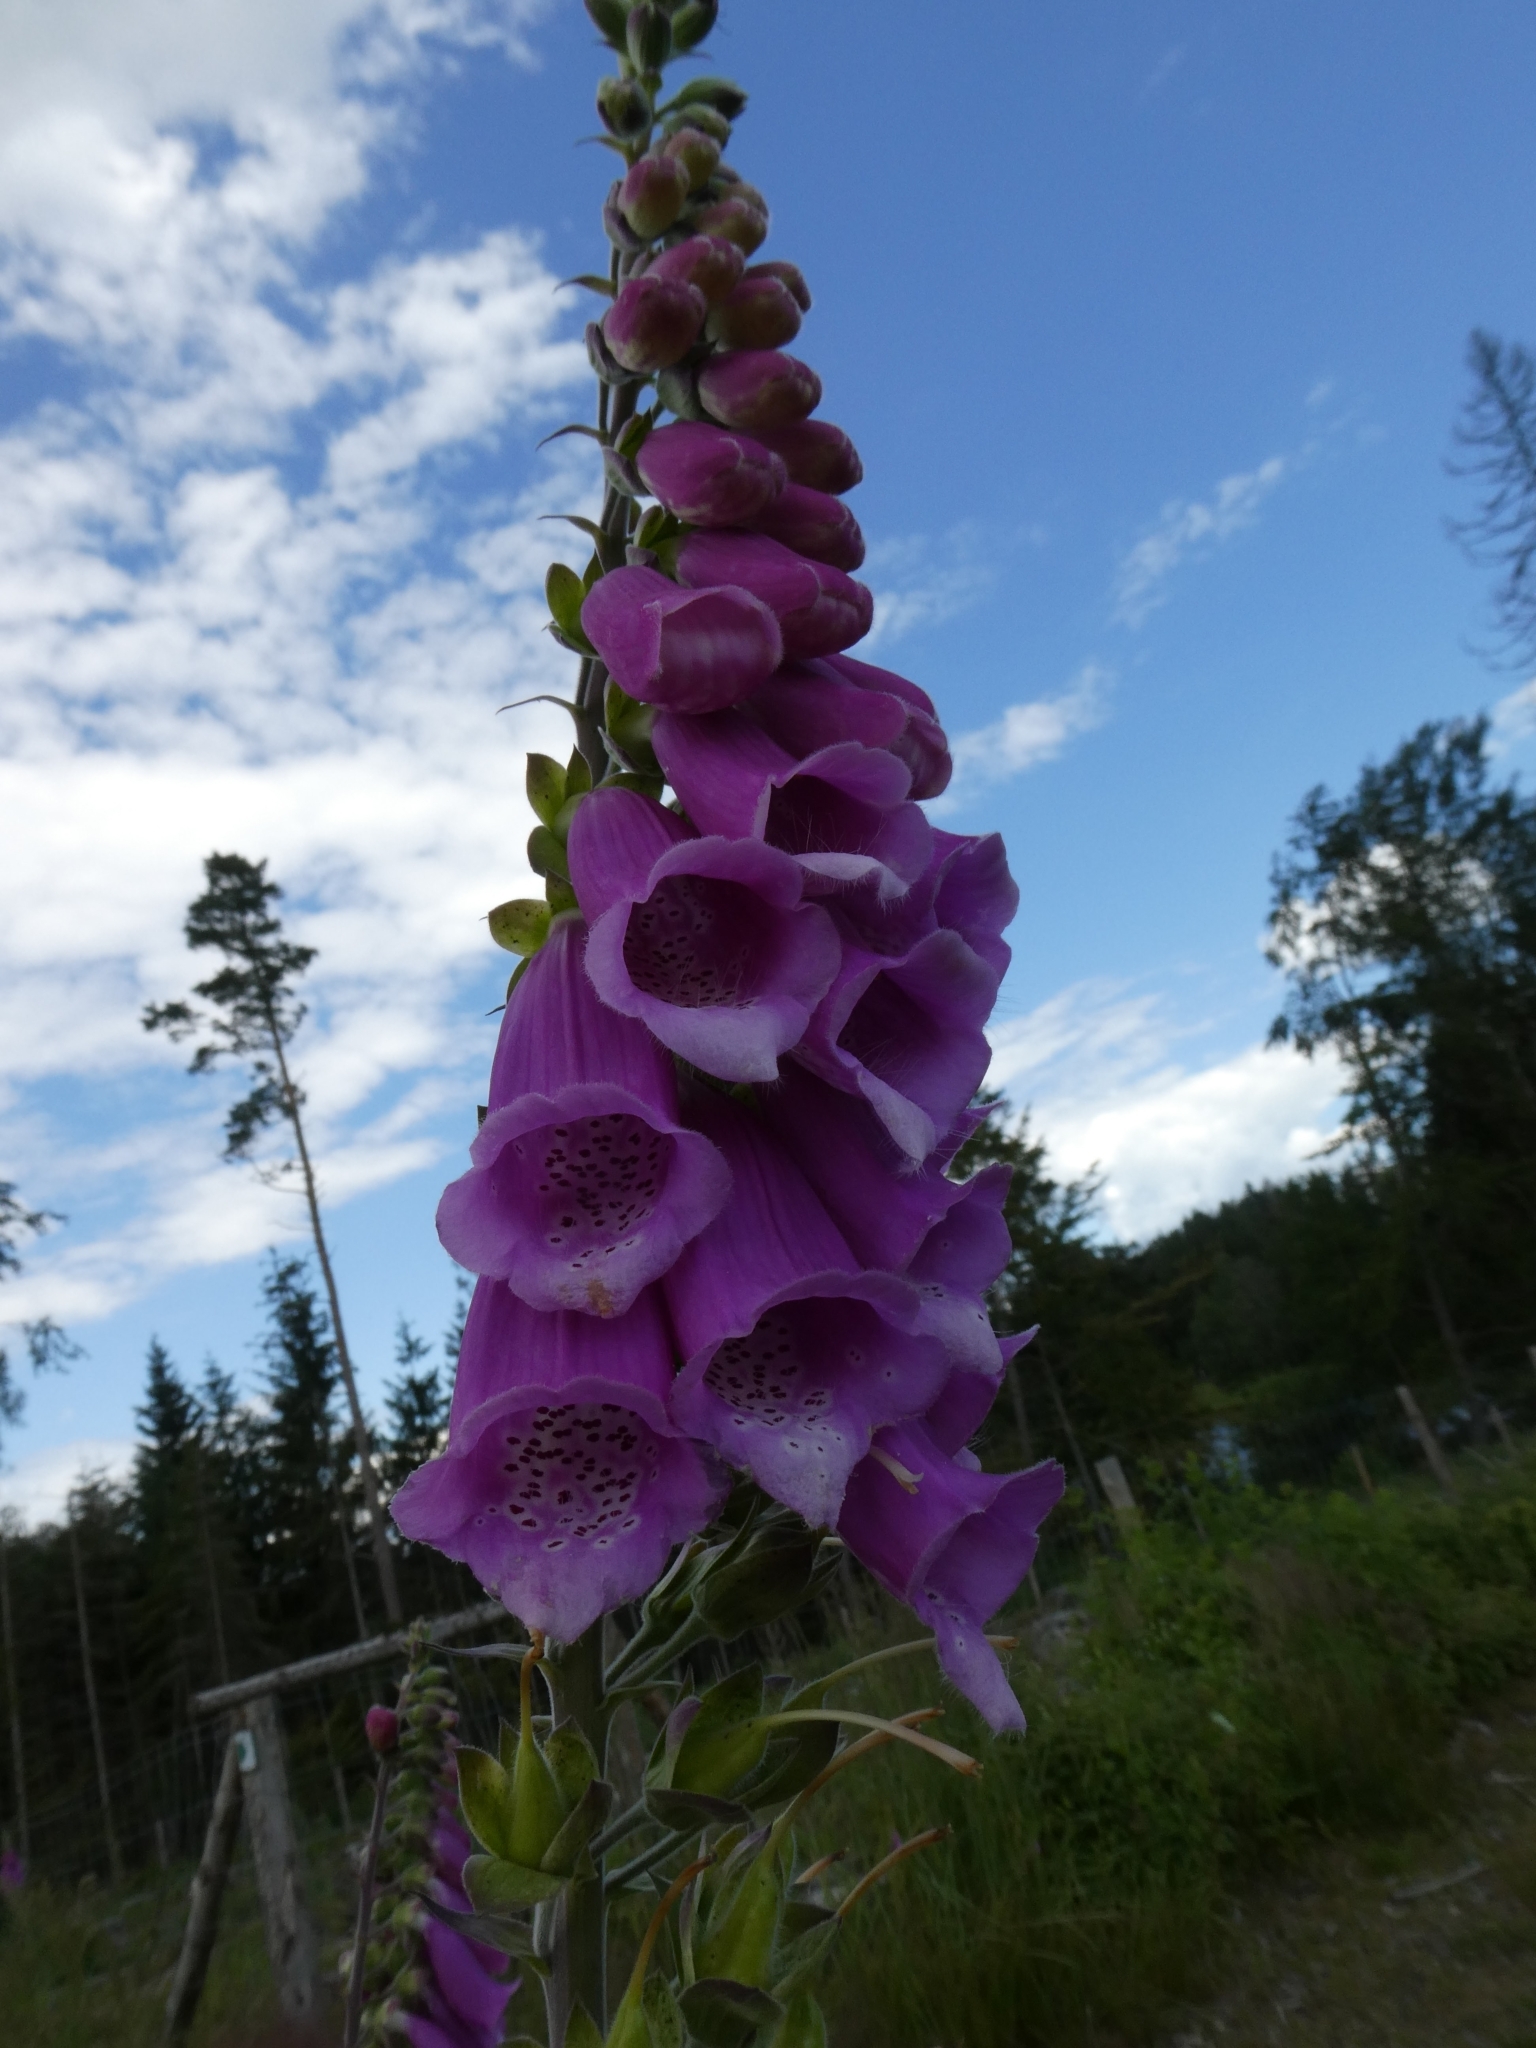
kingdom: Plantae
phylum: Tracheophyta
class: Magnoliopsida
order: Lamiales
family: Plantaginaceae
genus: Digitalis
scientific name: Digitalis purpurea
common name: Foxglove
